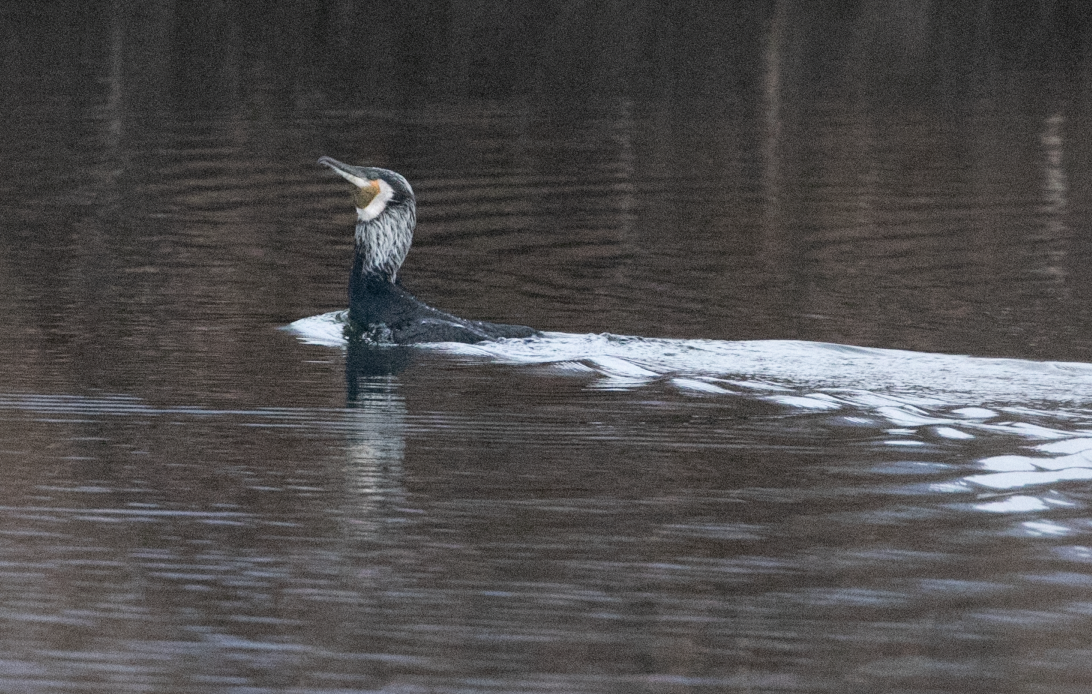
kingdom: Animalia
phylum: Chordata
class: Aves
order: Suliformes
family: Phalacrocoracidae
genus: Phalacrocorax
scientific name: Phalacrocorax carbo
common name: Great cormorant
